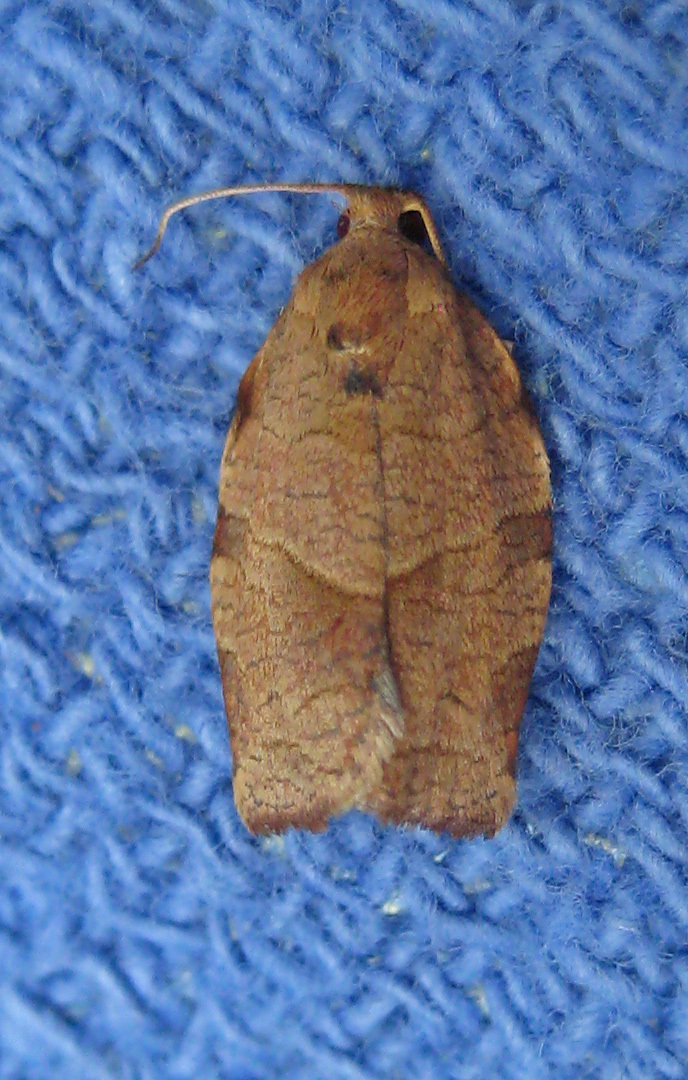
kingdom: Animalia
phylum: Arthropoda
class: Insecta
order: Lepidoptera
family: Tortricidae
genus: Choristoneura
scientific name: Choristoneura rosaceana
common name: Oblique-banded leafroller moth
